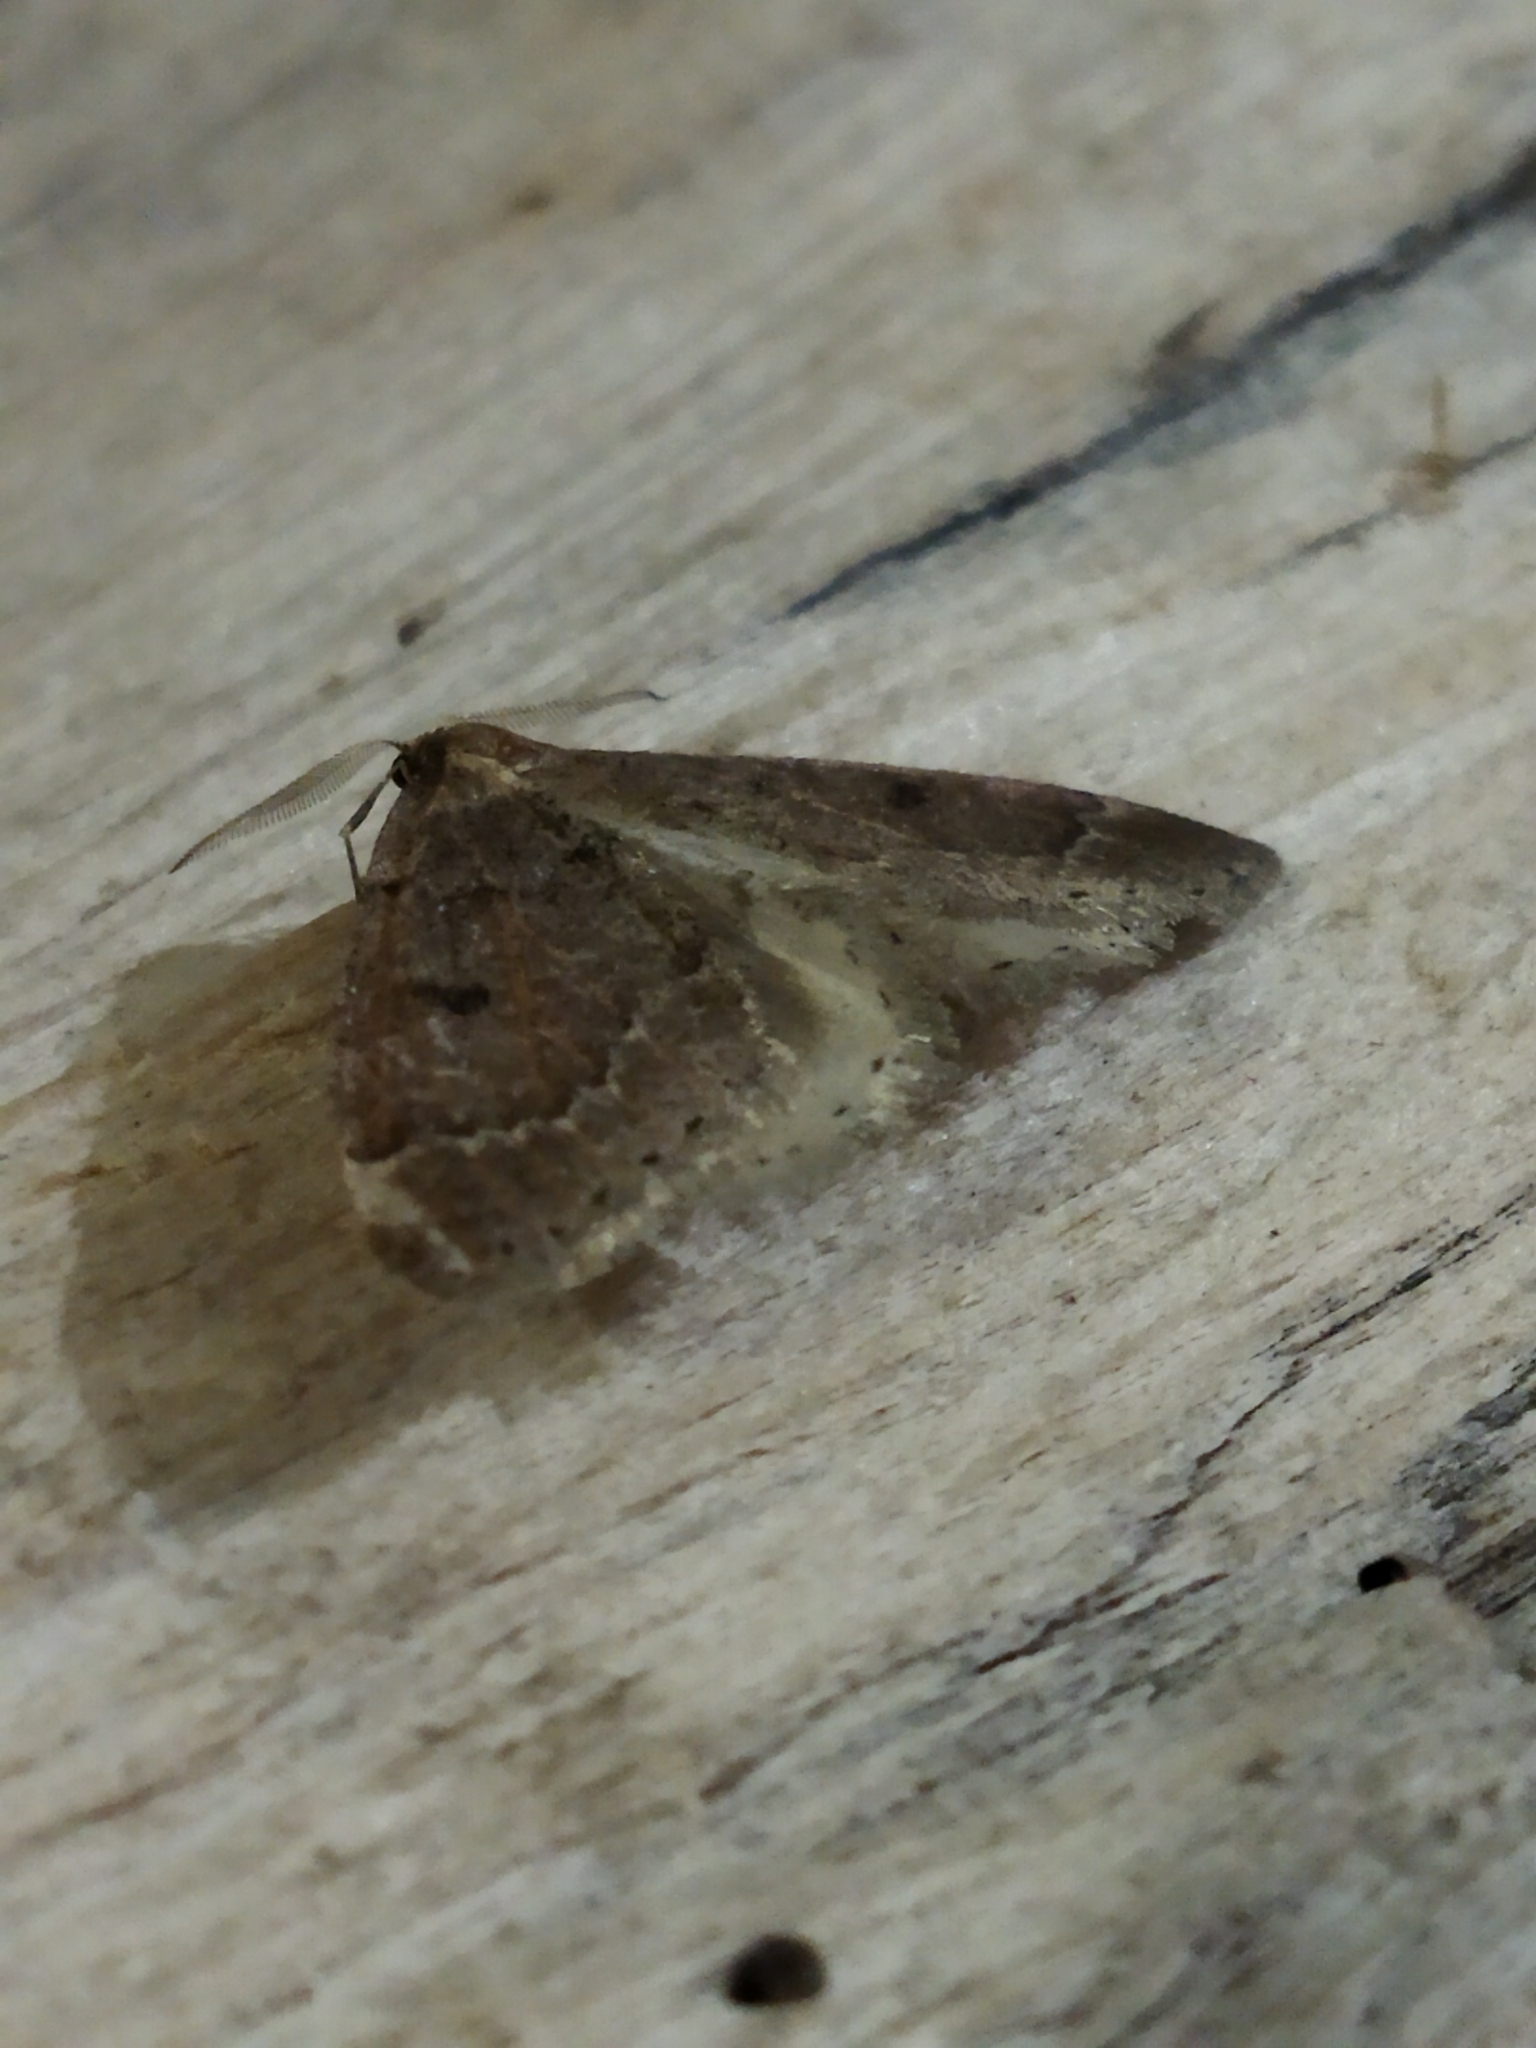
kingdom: Animalia
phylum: Arthropoda
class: Insecta
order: Lepidoptera
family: Geometridae
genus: Theria
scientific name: Theria rupicapraria
